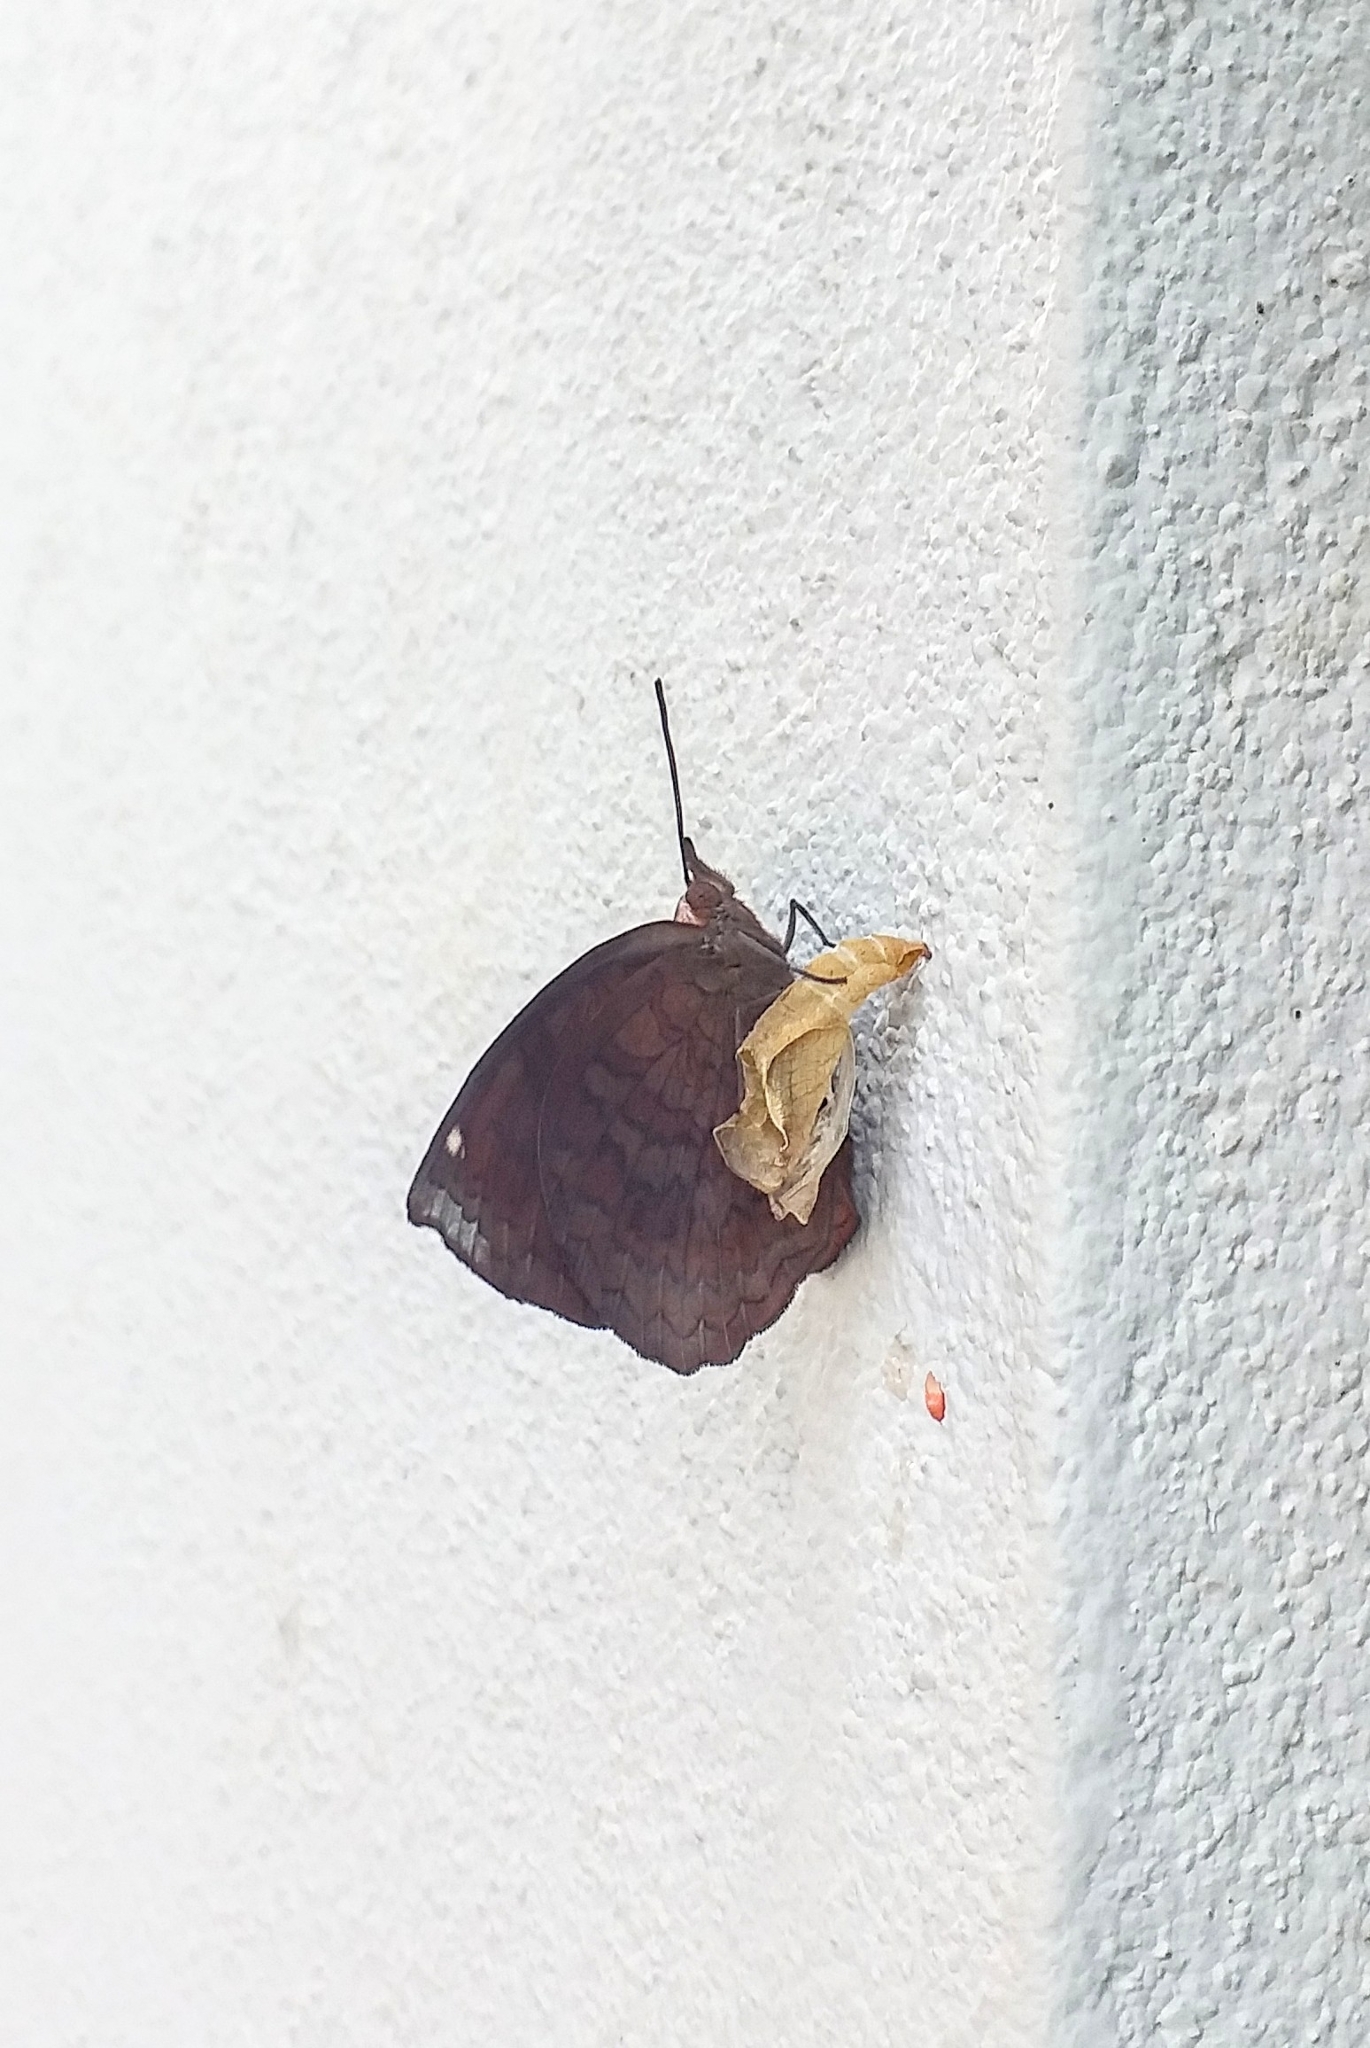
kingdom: Animalia
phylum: Arthropoda
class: Insecta
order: Lepidoptera
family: Nymphalidae
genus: Ariadne
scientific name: Ariadne merione
